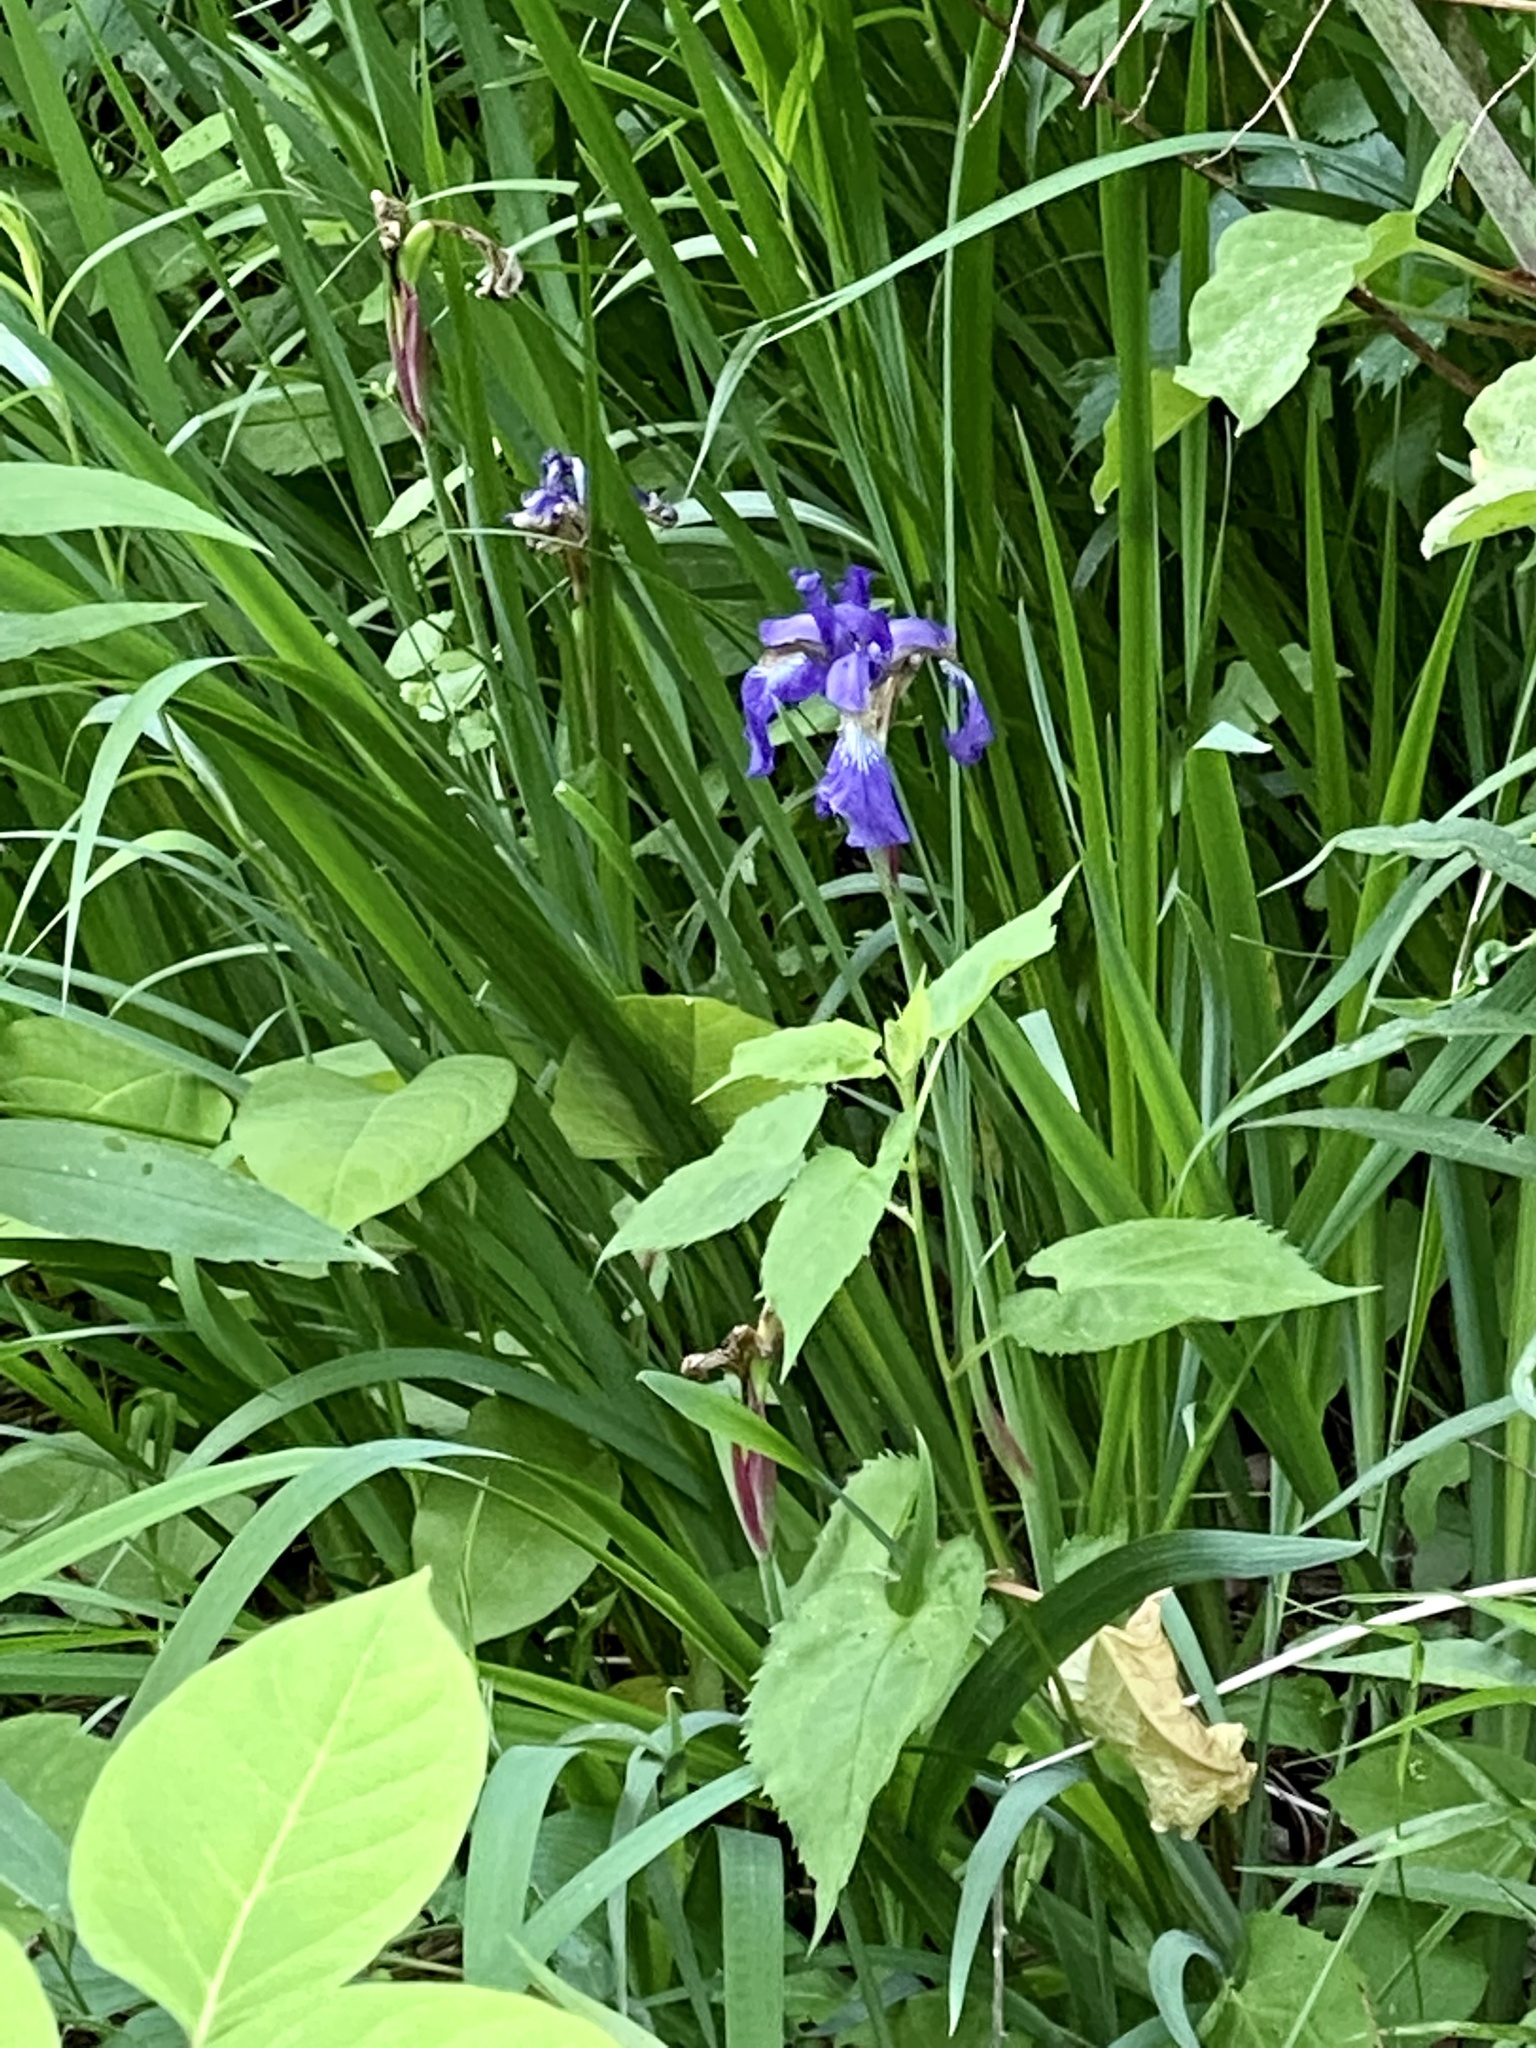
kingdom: Plantae
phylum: Tracheophyta
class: Liliopsida
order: Asparagales
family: Iridaceae
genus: Iris
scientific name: Iris versicolor
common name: Purple iris
